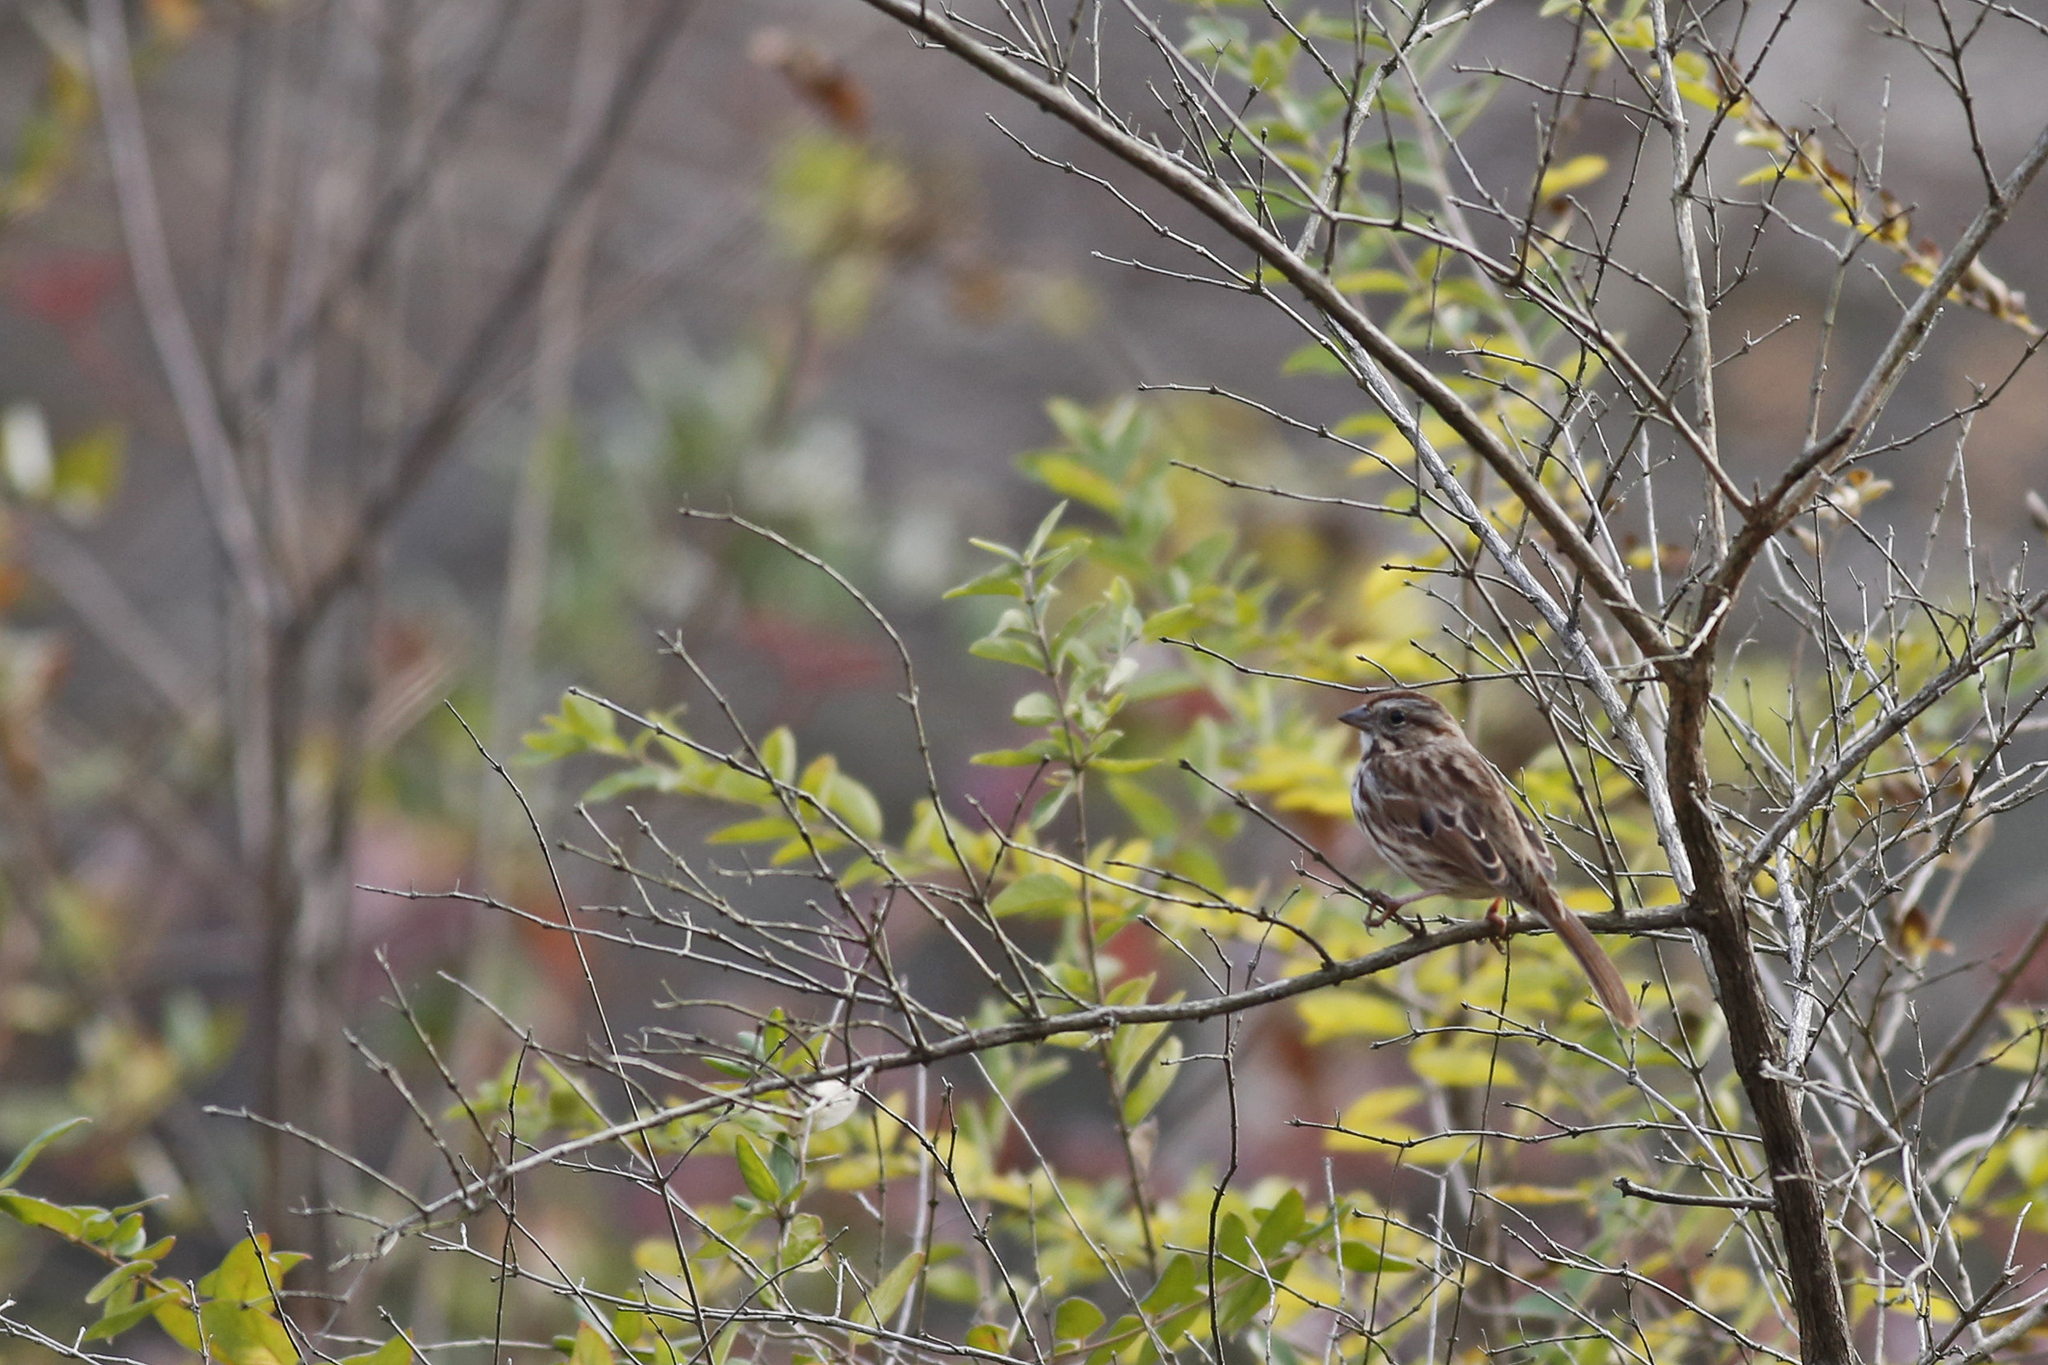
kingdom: Animalia
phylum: Chordata
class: Aves
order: Passeriformes
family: Passerellidae
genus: Melospiza
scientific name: Melospiza melodia
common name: Song sparrow
